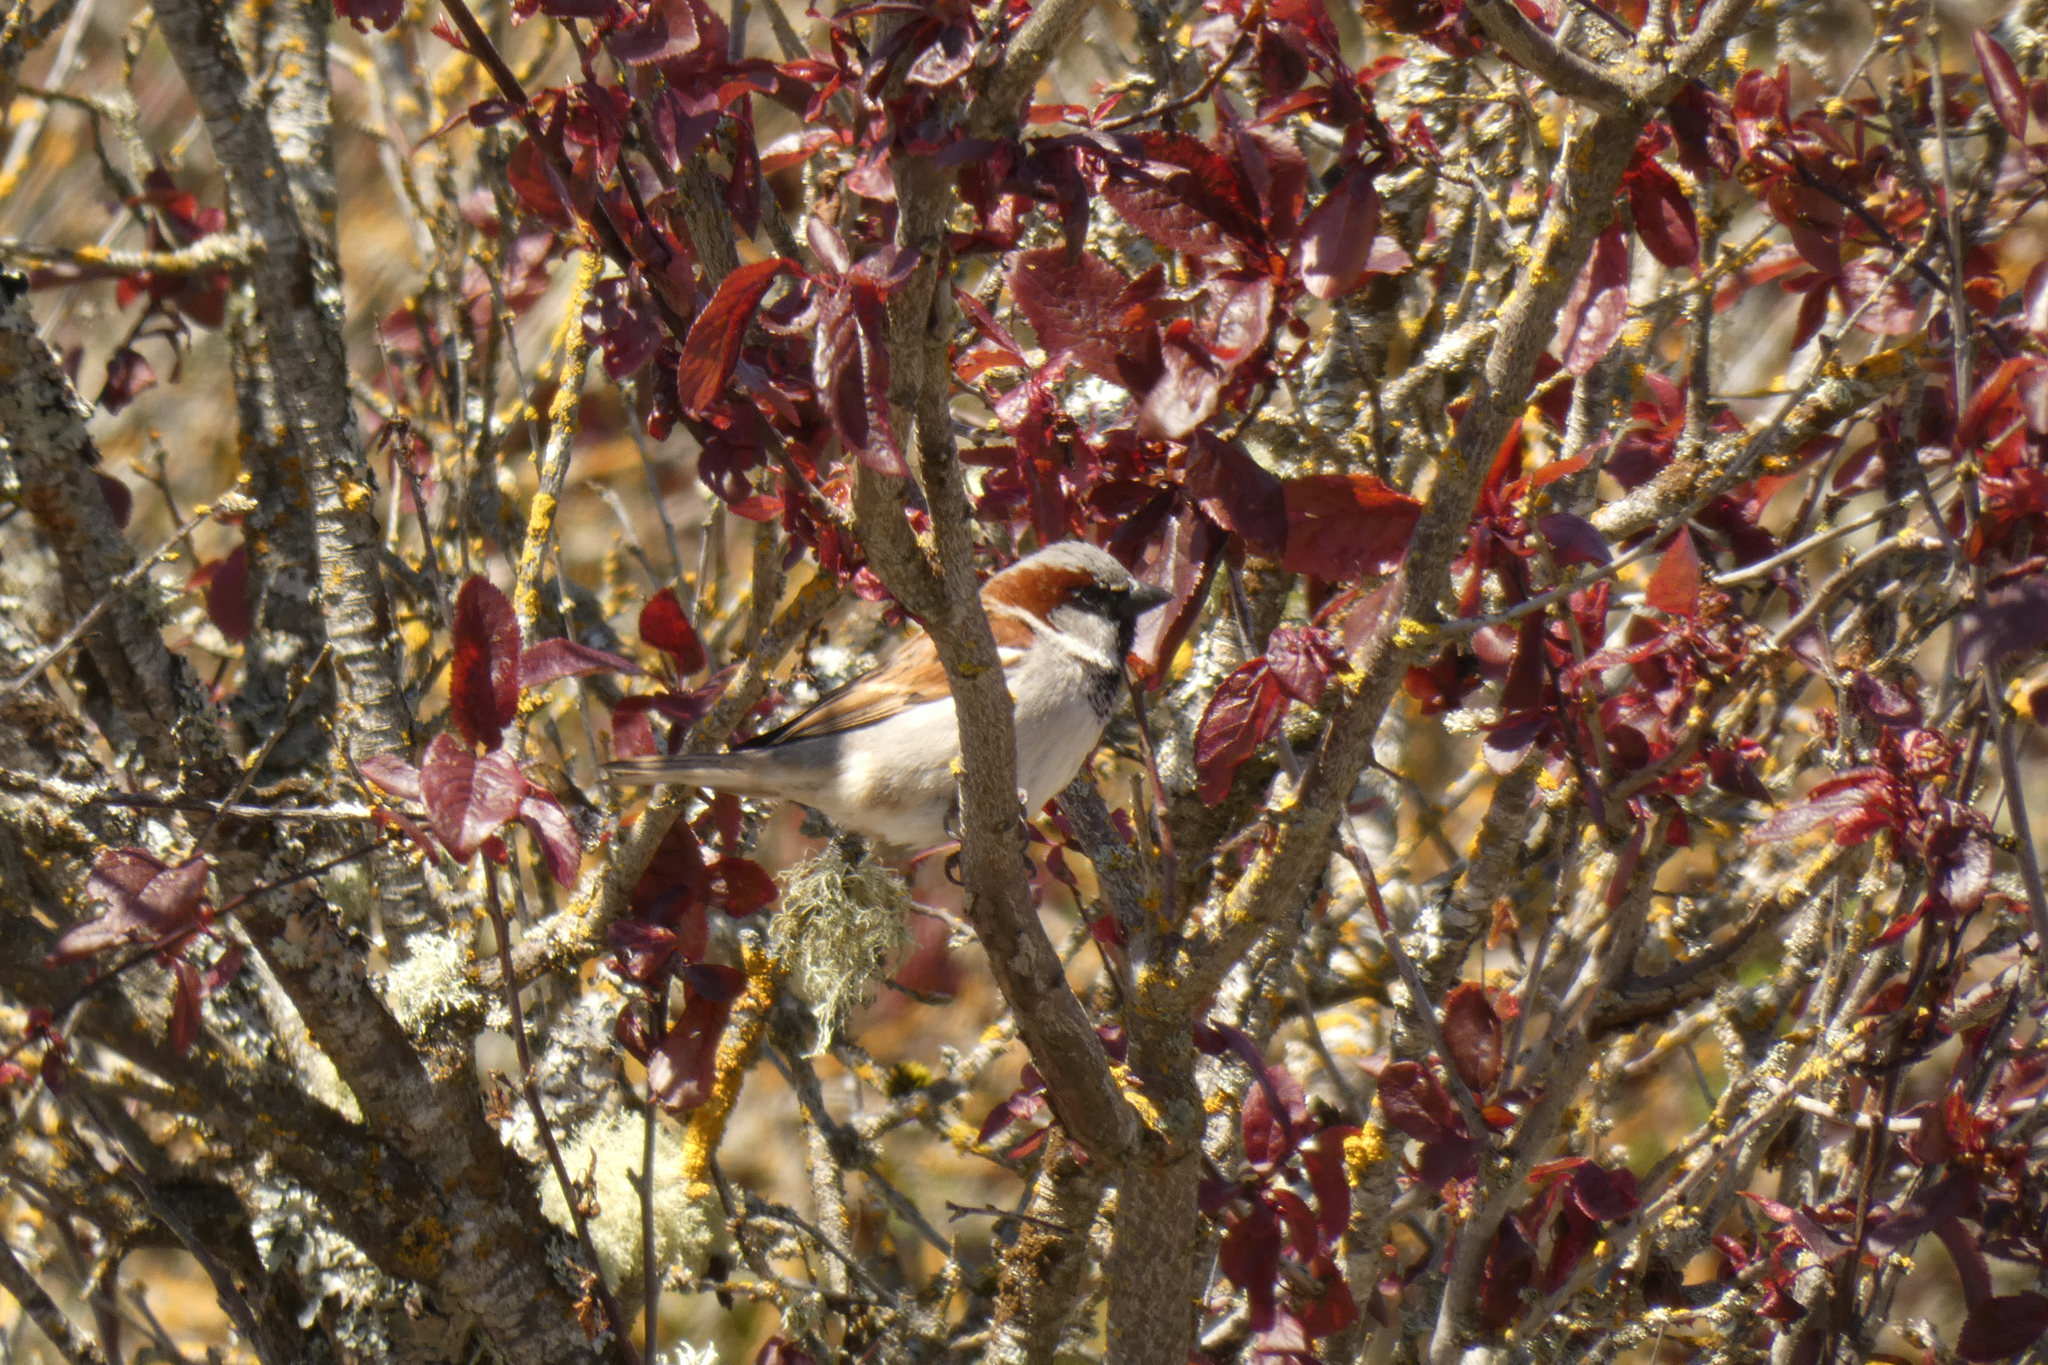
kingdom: Animalia
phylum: Chordata
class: Aves
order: Passeriformes
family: Passeridae
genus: Passer
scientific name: Passer domesticus
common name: House sparrow
